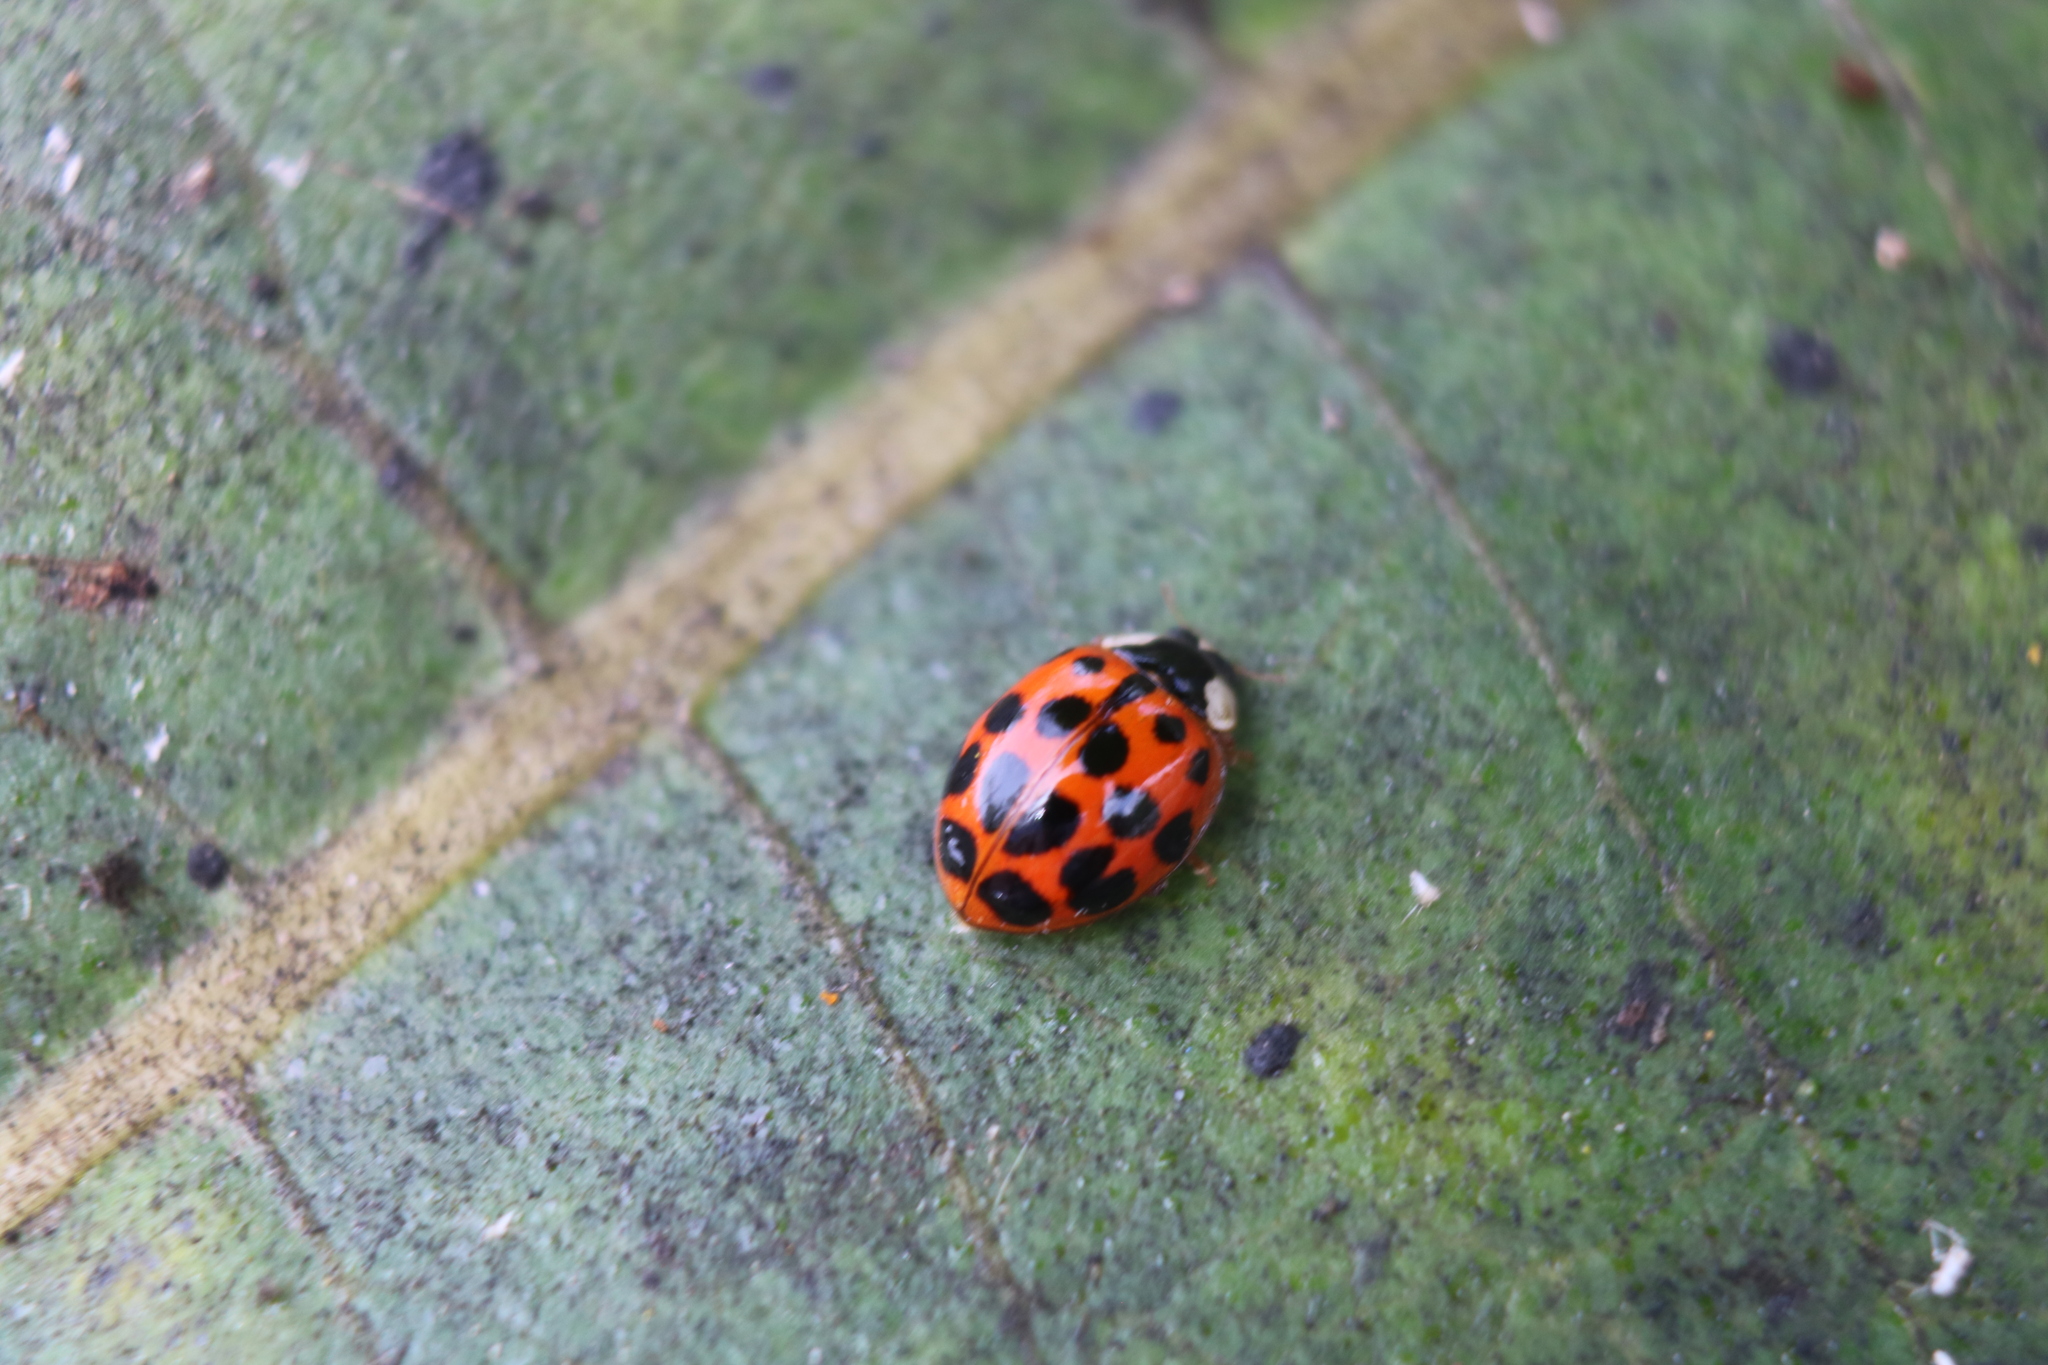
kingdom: Animalia
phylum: Arthropoda
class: Insecta
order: Coleoptera
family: Coccinellidae
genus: Harmonia
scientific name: Harmonia axyridis
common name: Harlequin ladybird
